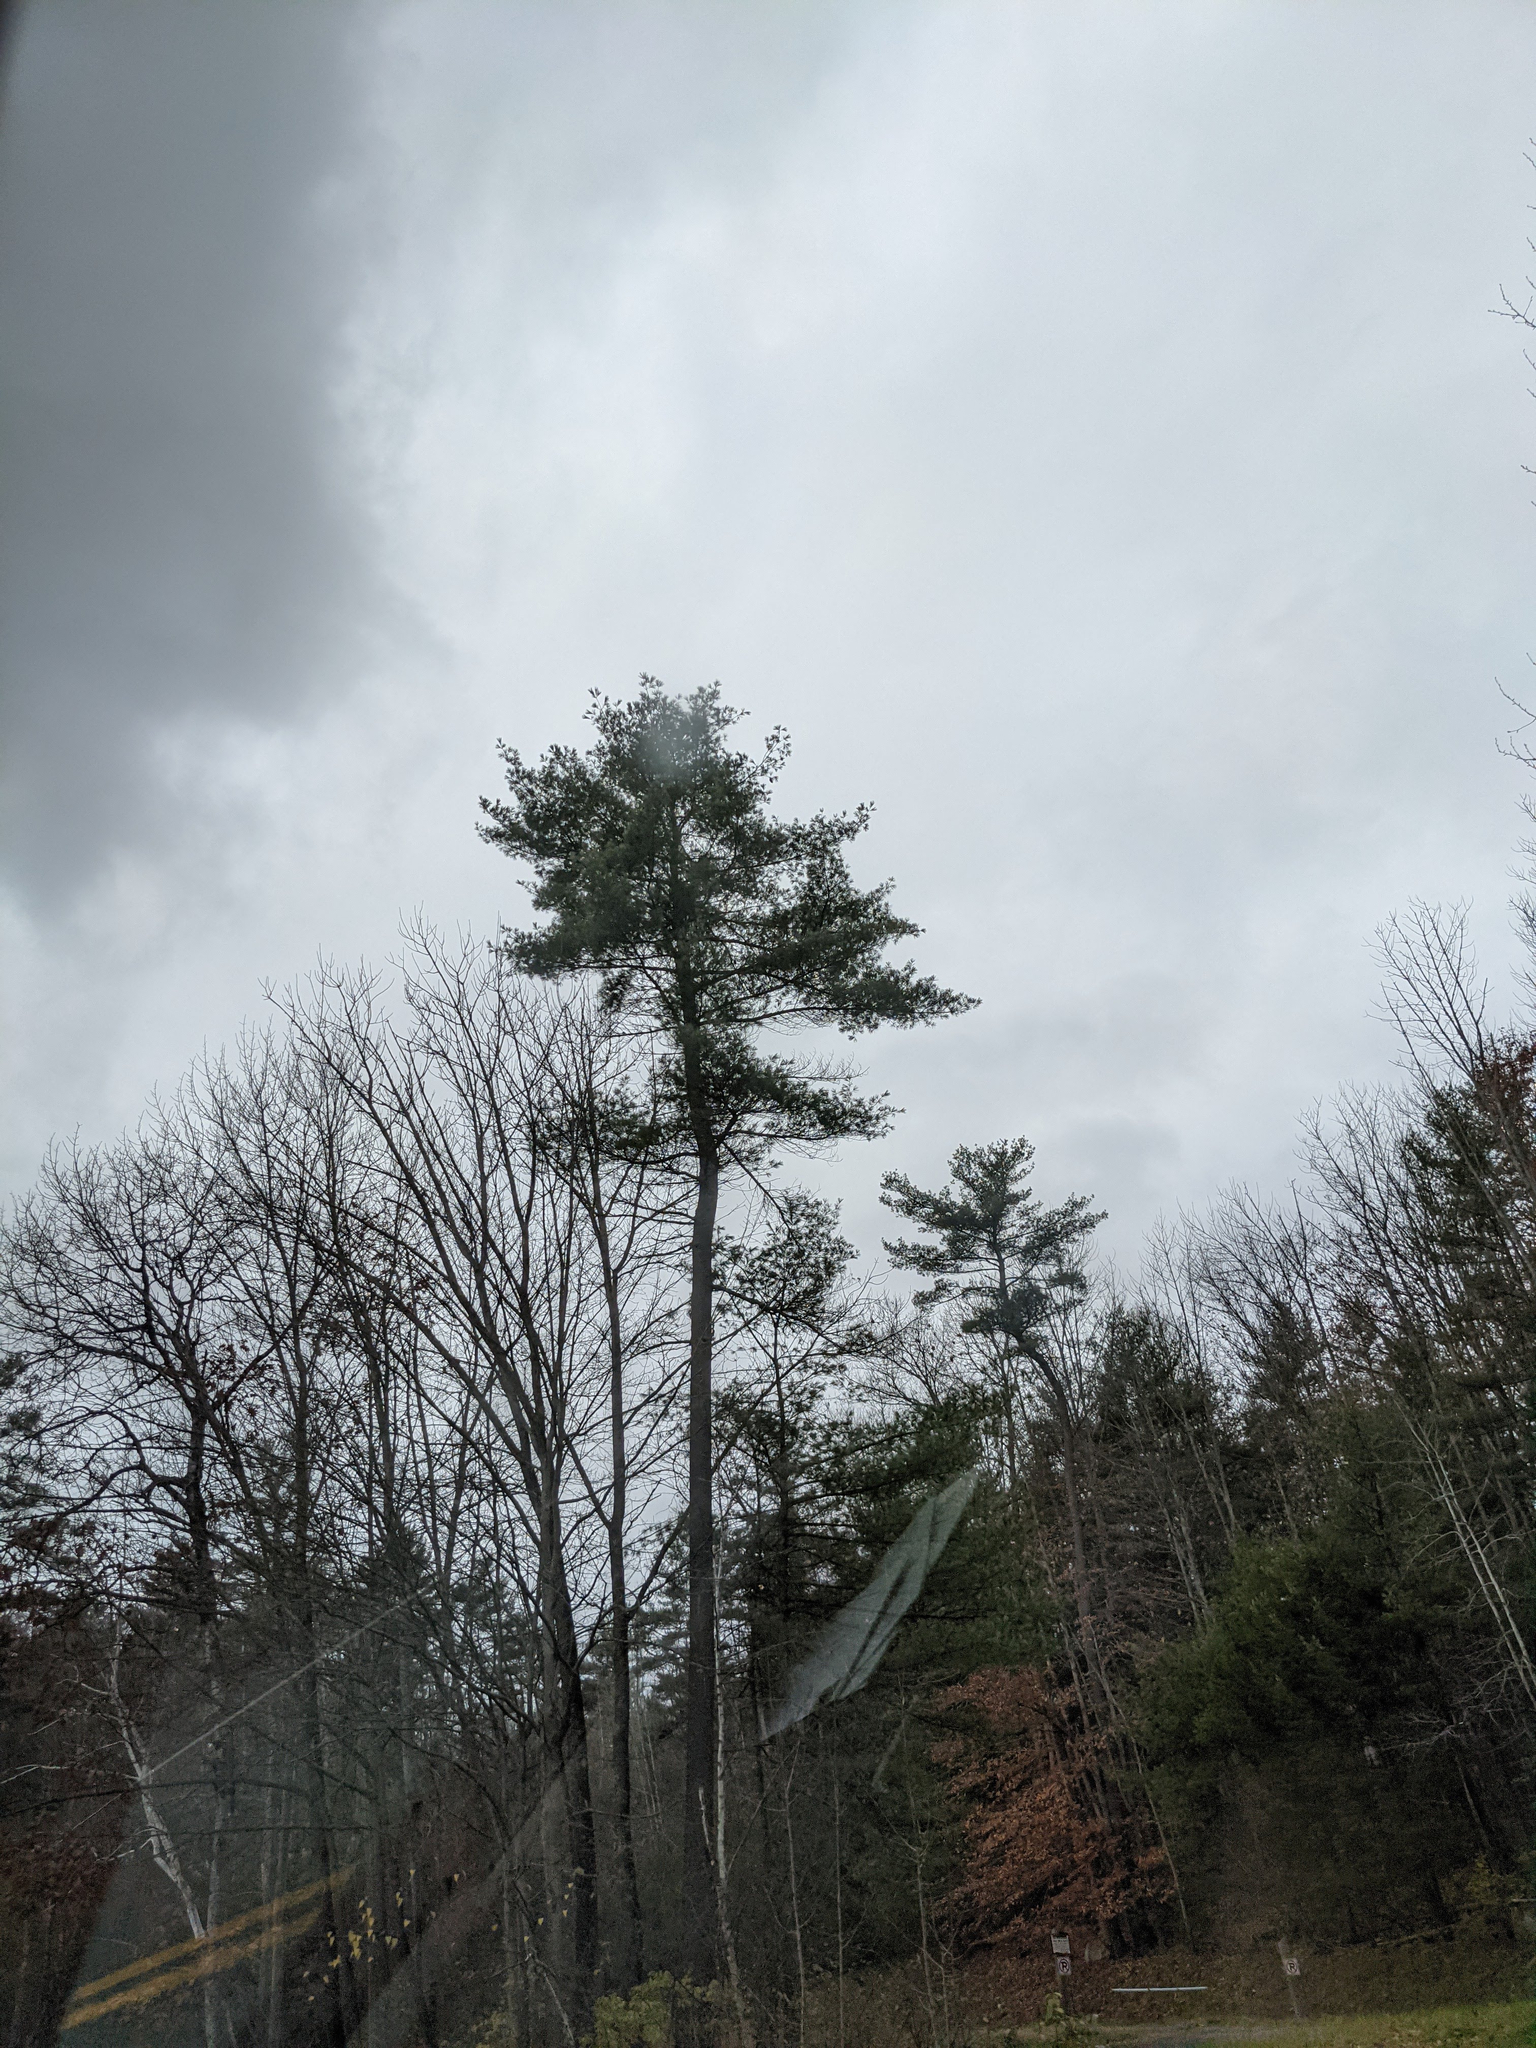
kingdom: Plantae
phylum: Tracheophyta
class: Pinopsida
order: Pinales
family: Pinaceae
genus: Pinus
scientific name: Pinus strobus
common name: Weymouth pine
